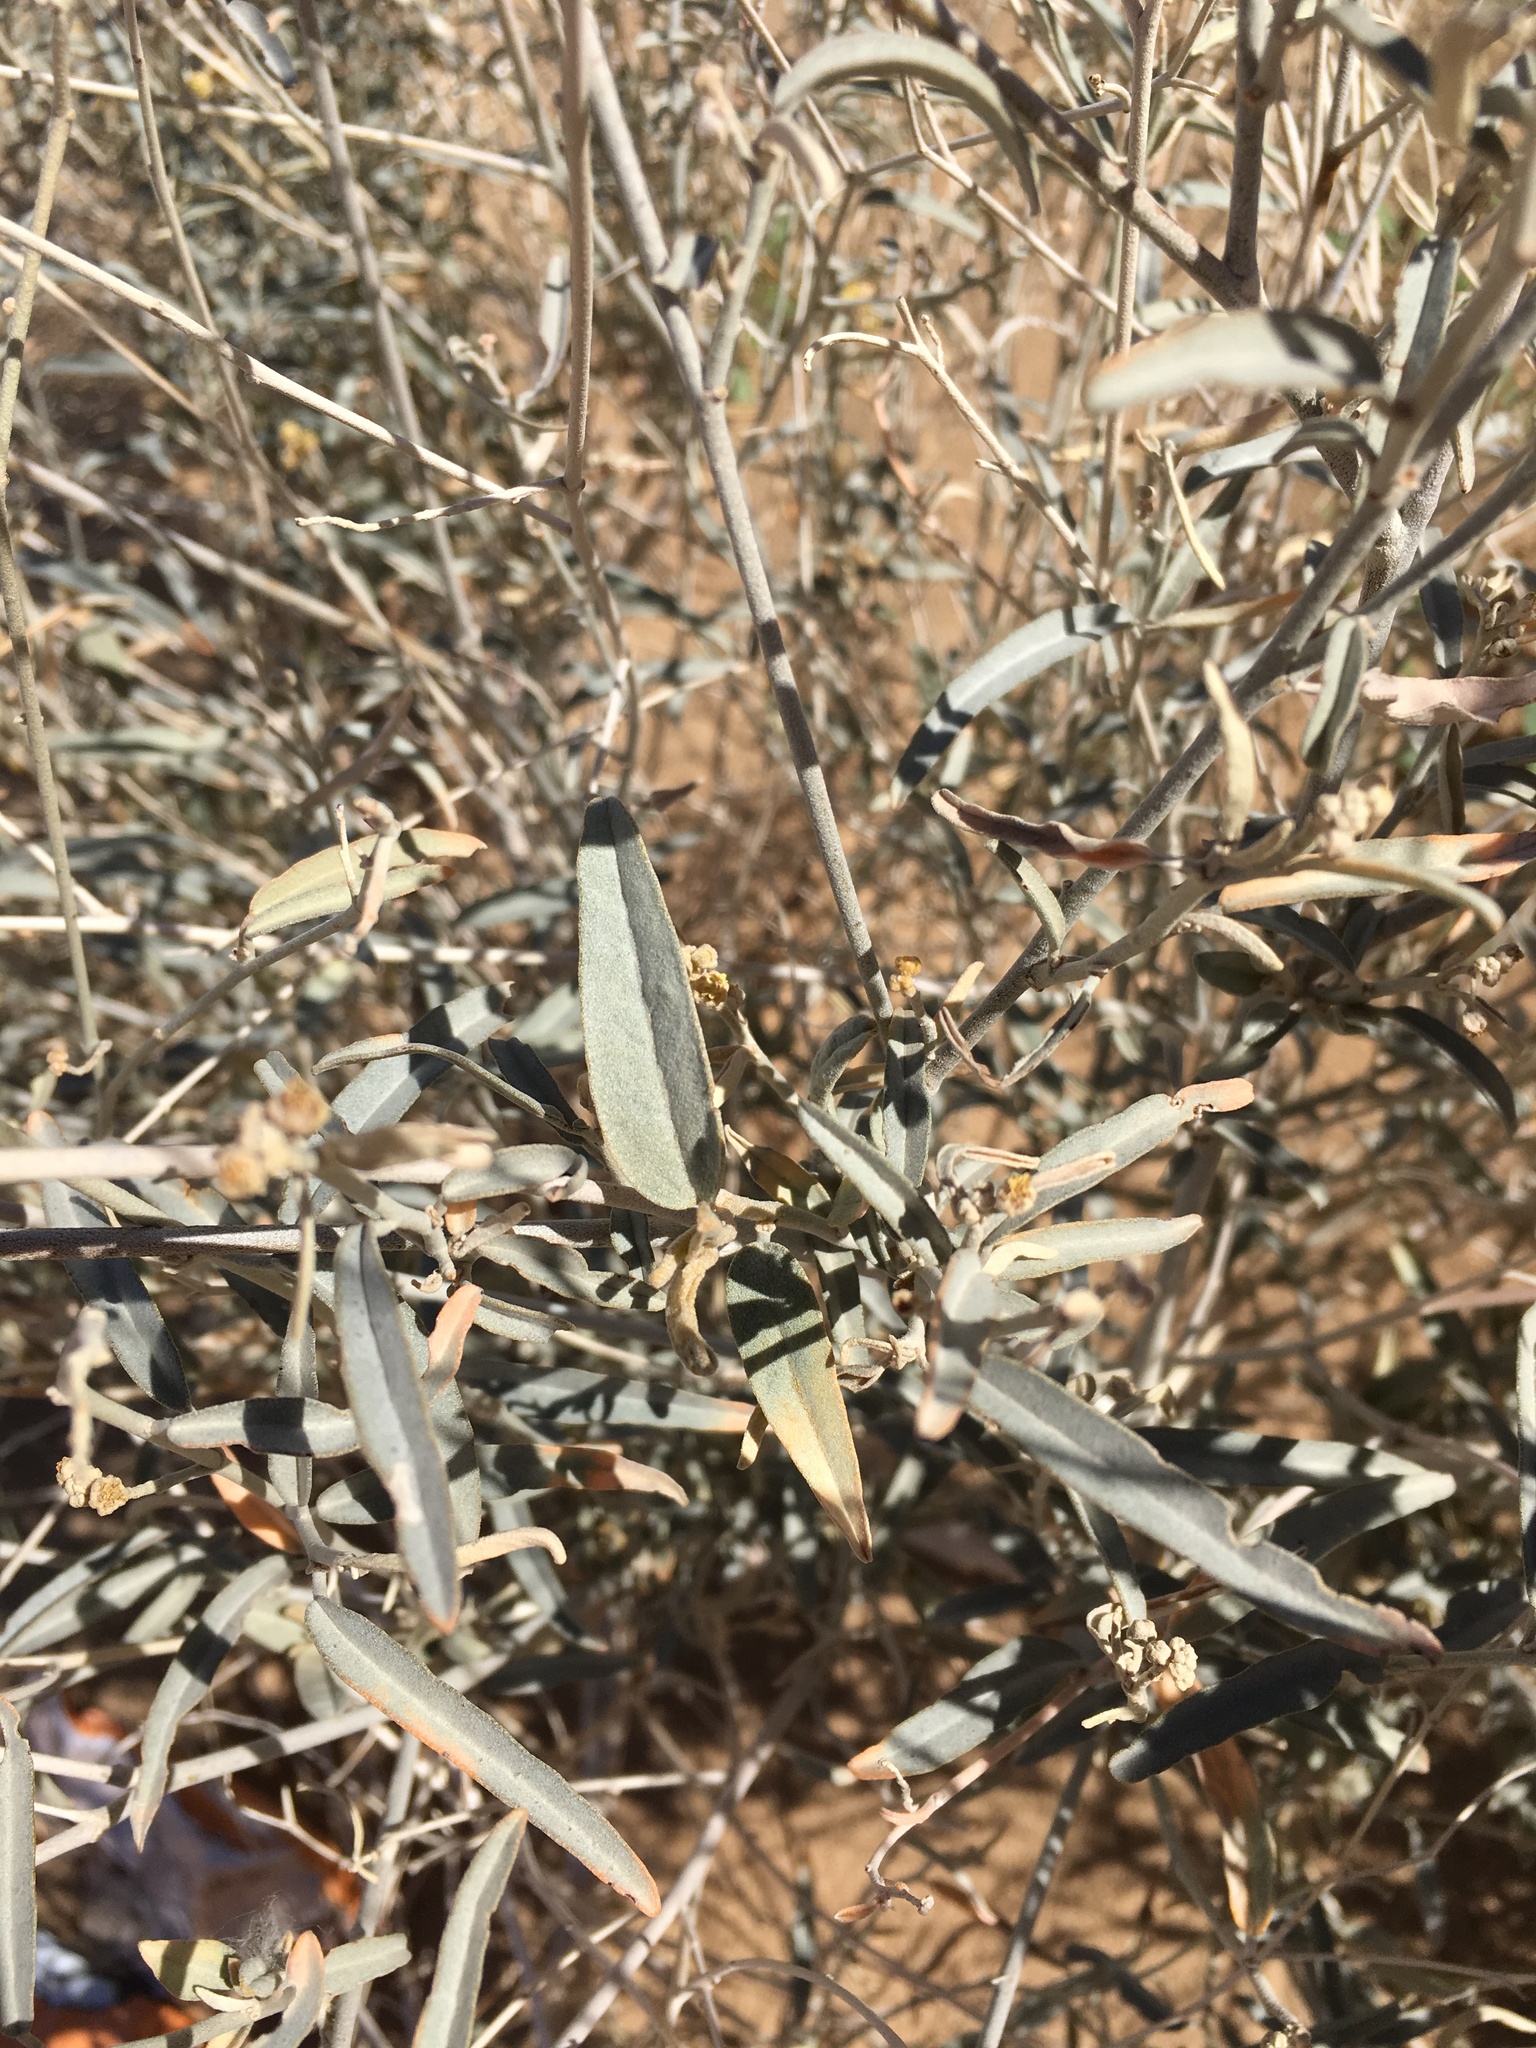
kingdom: Plantae
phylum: Tracheophyta
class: Magnoliopsida
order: Malpighiales
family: Euphorbiaceae
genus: Croton
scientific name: Croton wigginsii
